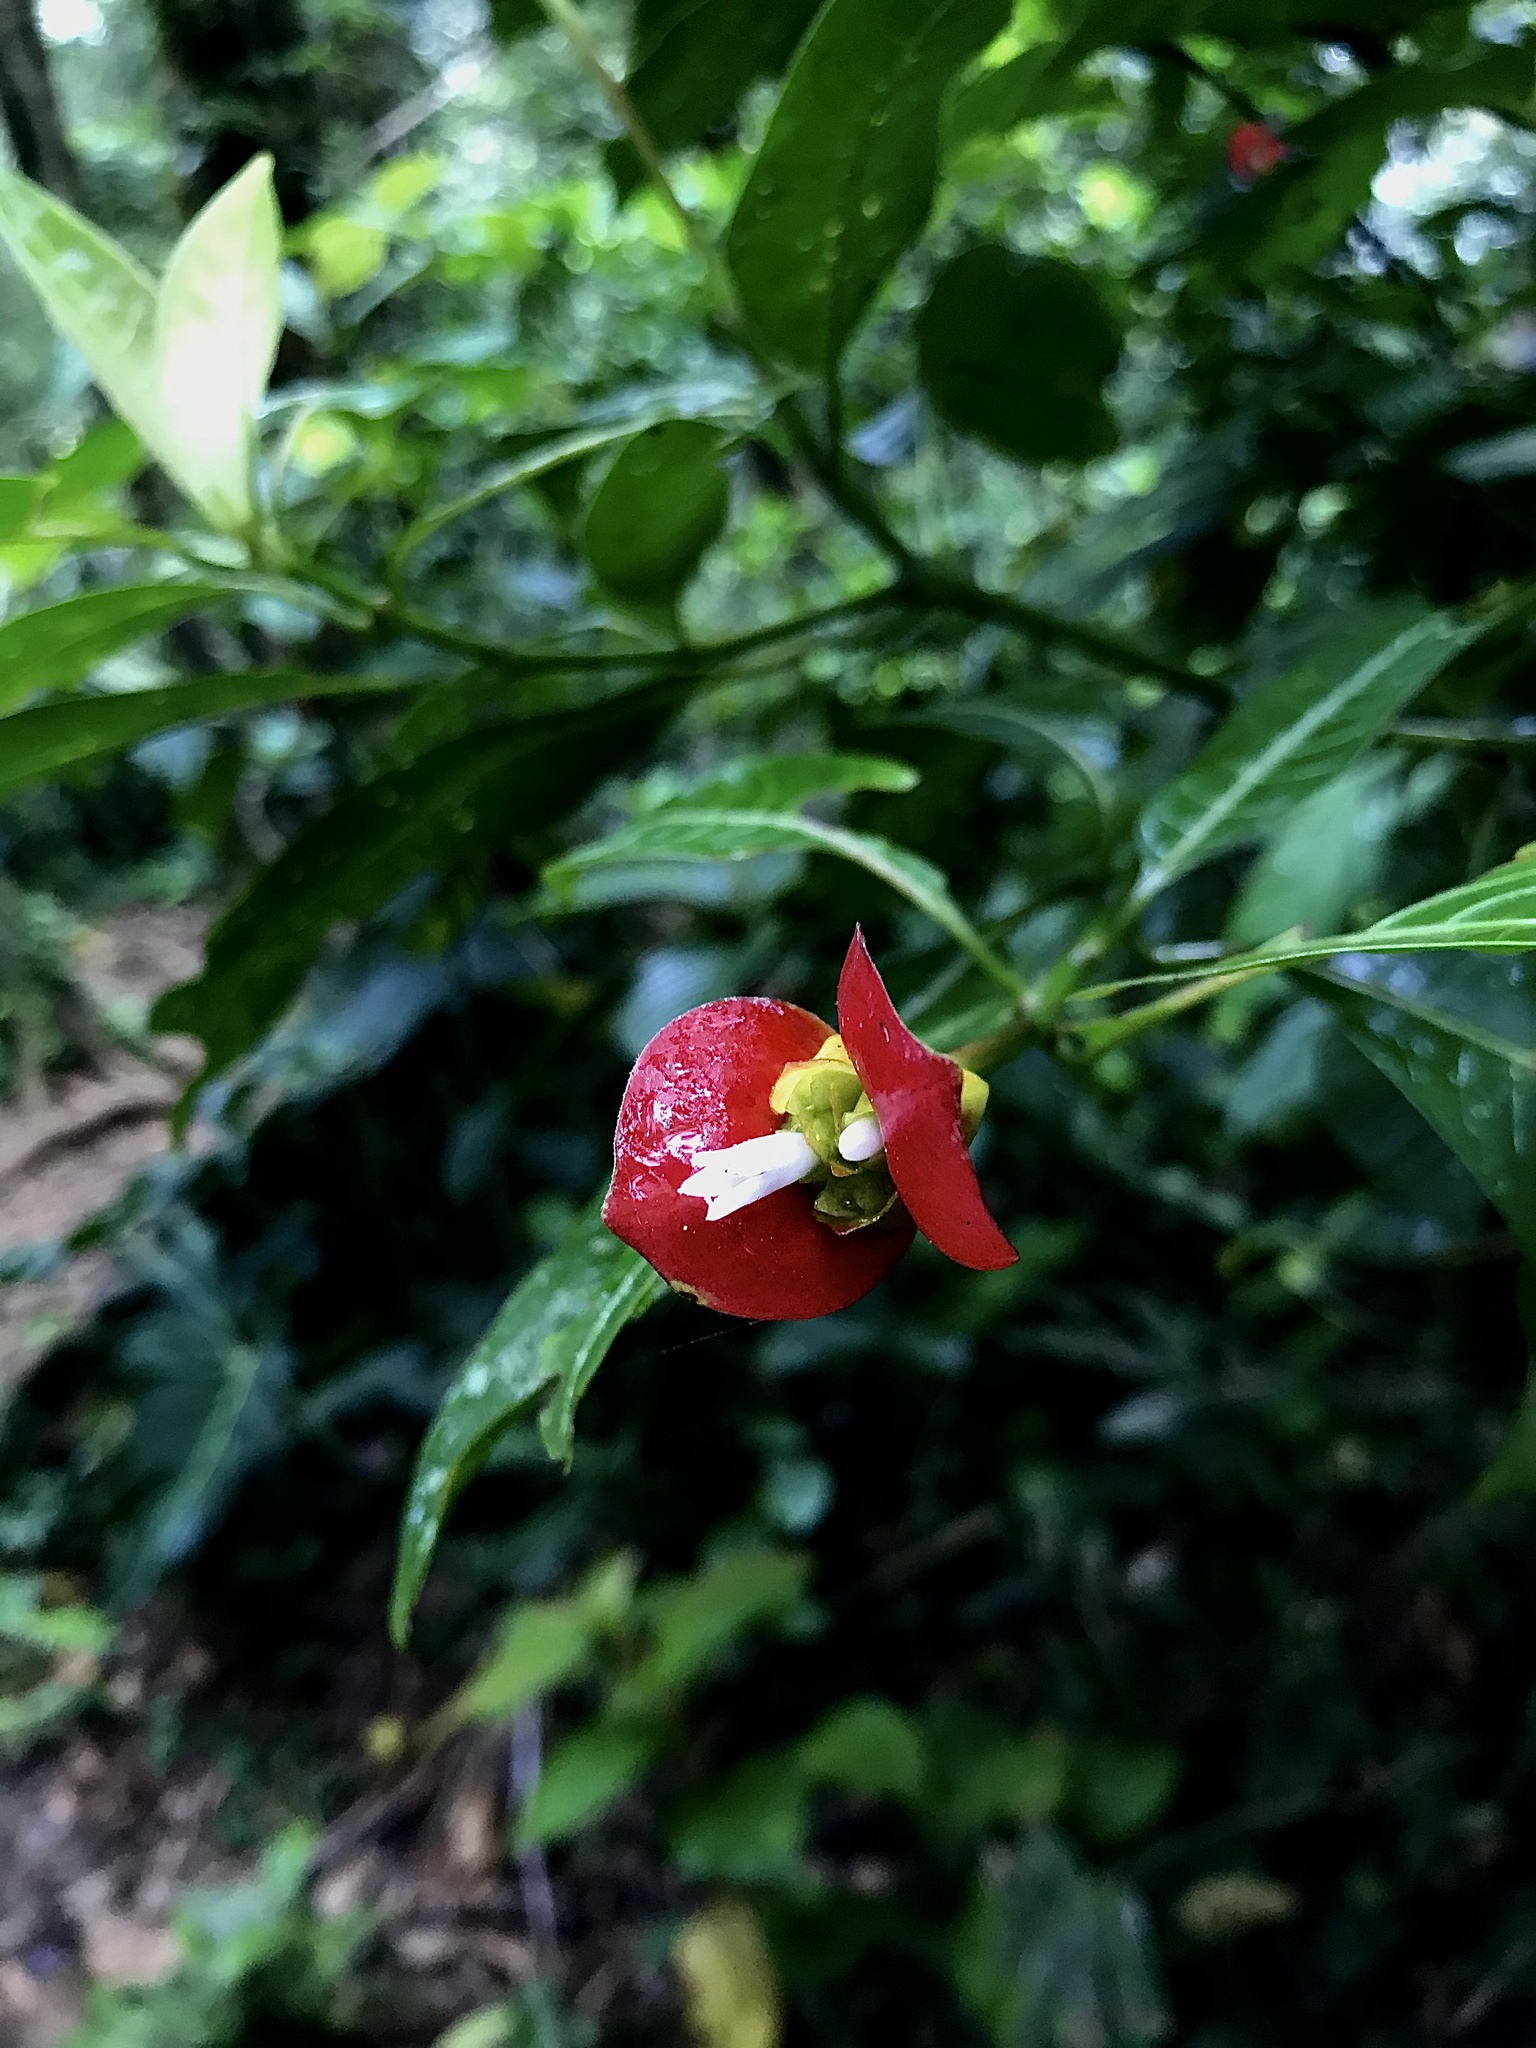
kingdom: Plantae
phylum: Tracheophyta
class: Magnoliopsida
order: Gentianales
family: Rubiaceae
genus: Palicourea
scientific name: Palicourea elata
